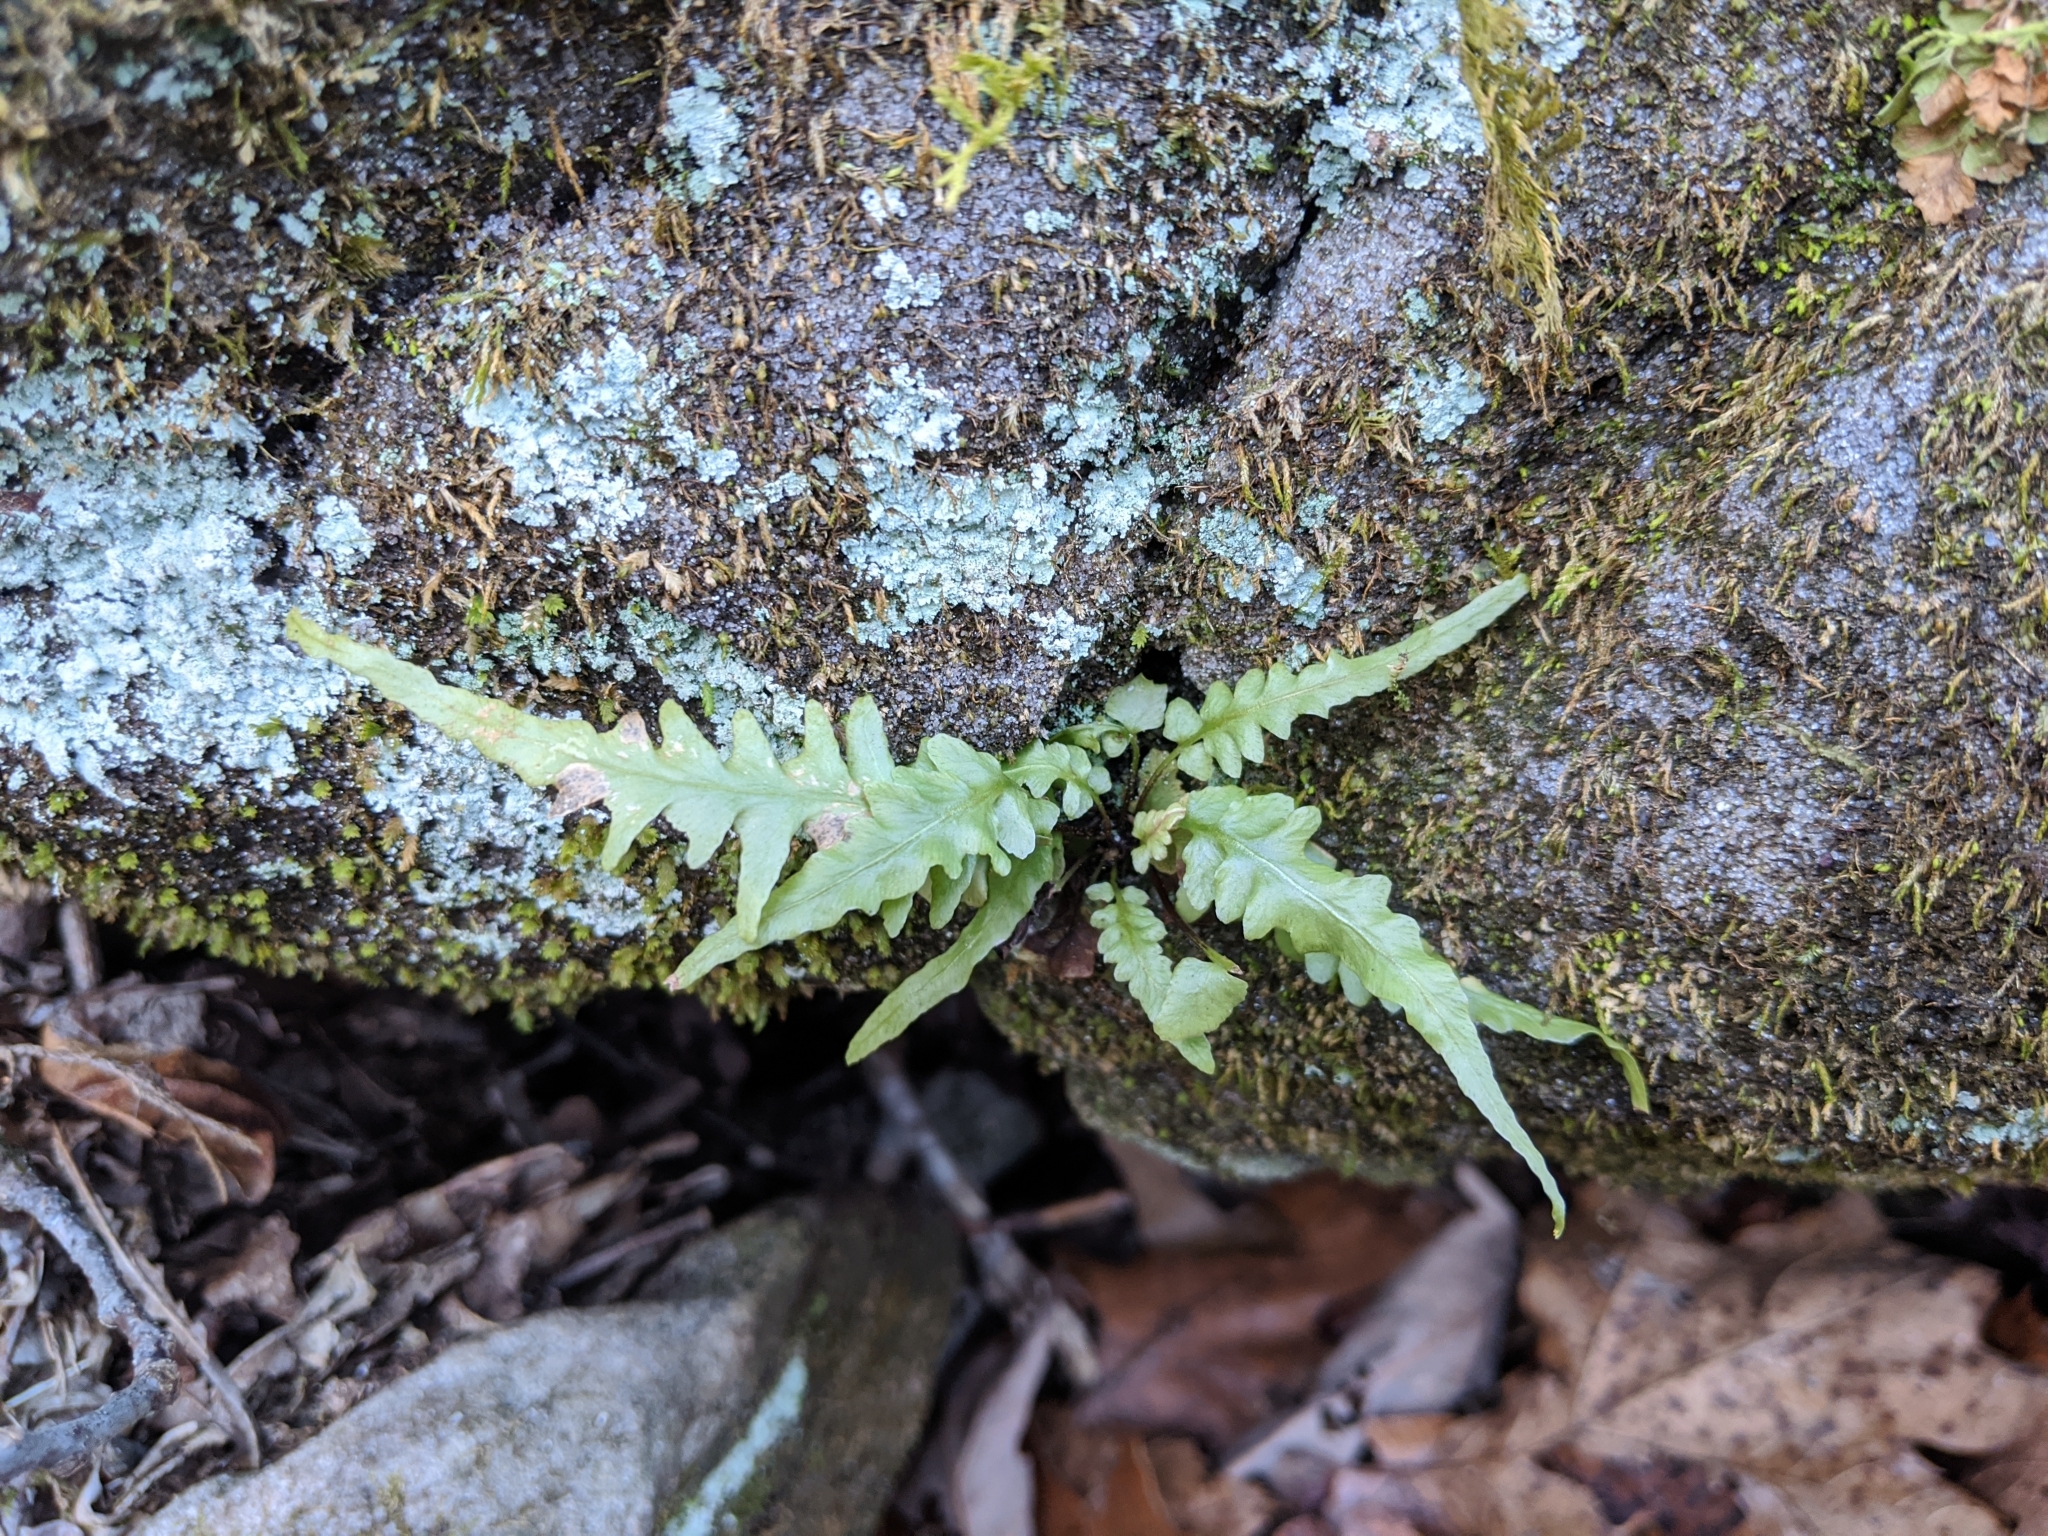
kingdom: Plantae
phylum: Tracheophyta
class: Polypodiopsida
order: Polypodiales
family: Aspleniaceae
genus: Asplenium
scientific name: Asplenium ebenoides
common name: Dragon-tail fern
